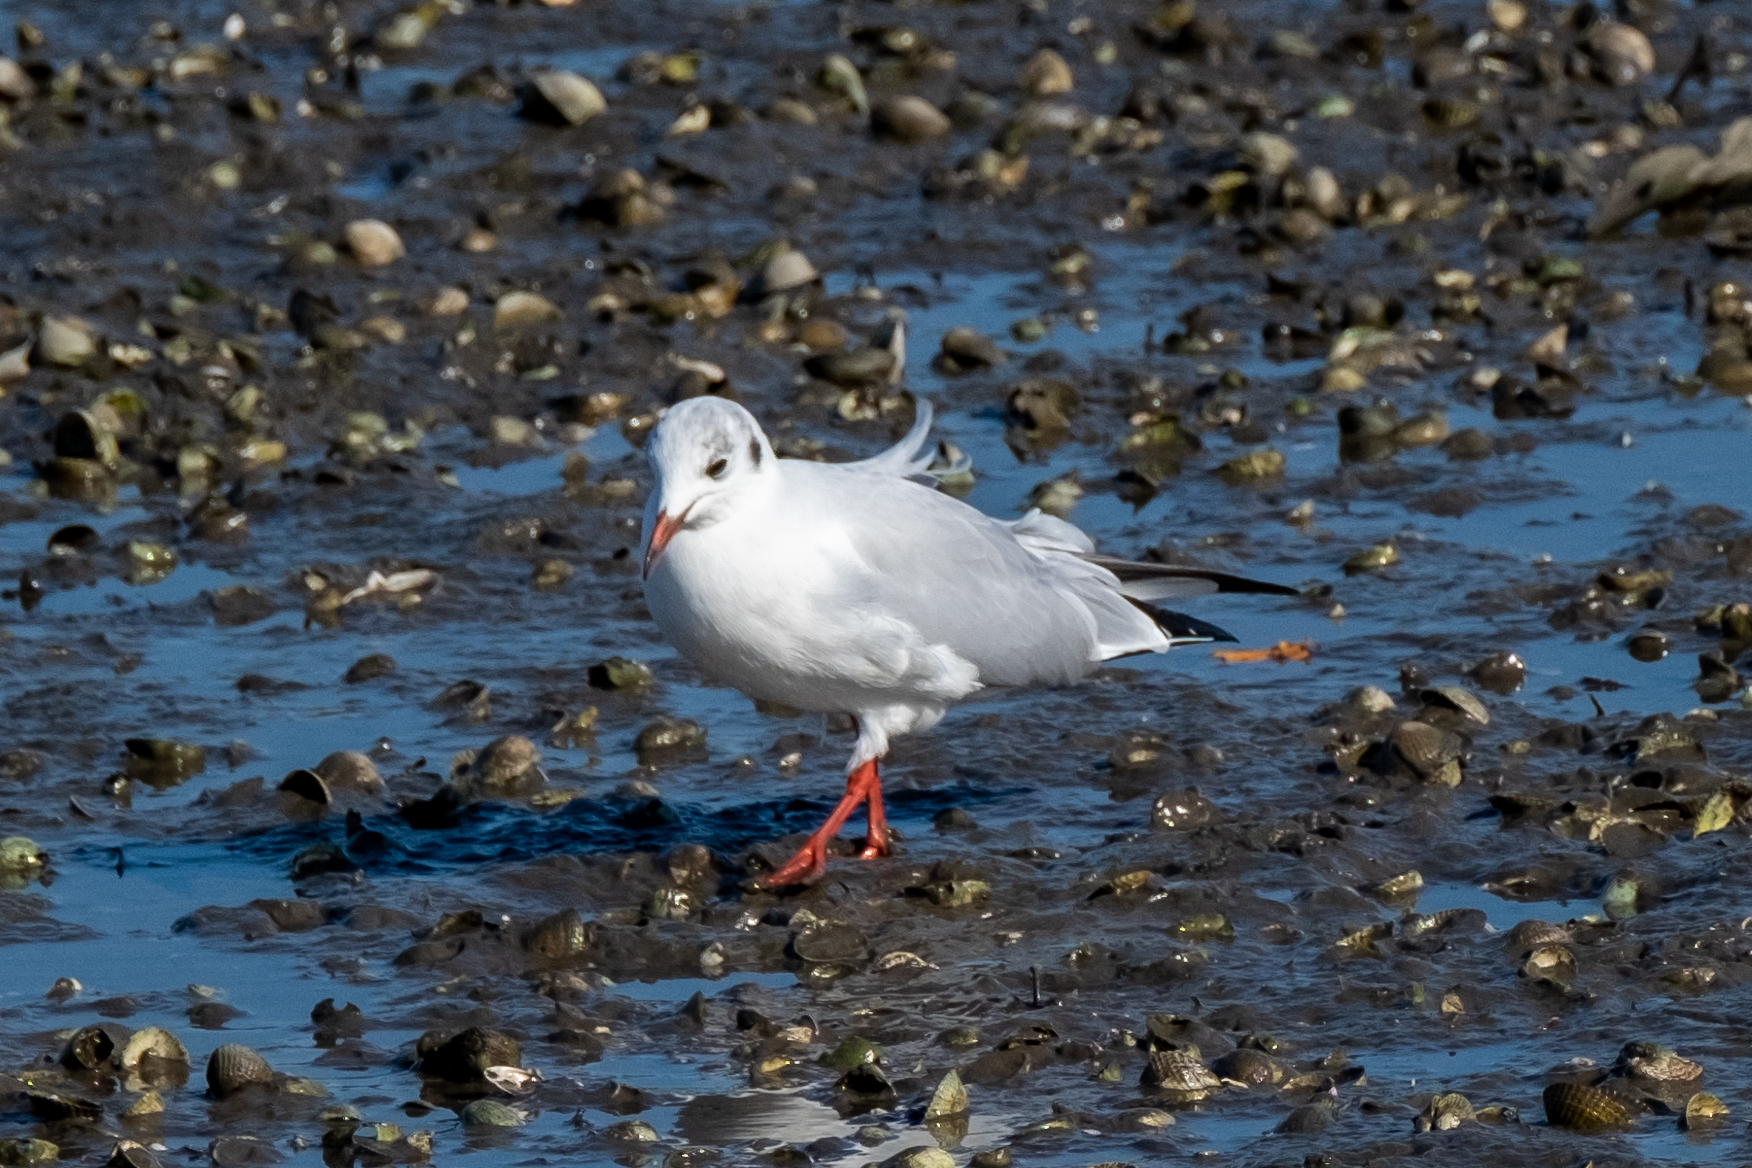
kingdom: Animalia
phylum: Chordata
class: Aves
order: Charadriiformes
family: Laridae
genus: Chroicocephalus
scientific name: Chroicocephalus ridibundus
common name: Black-headed gull
